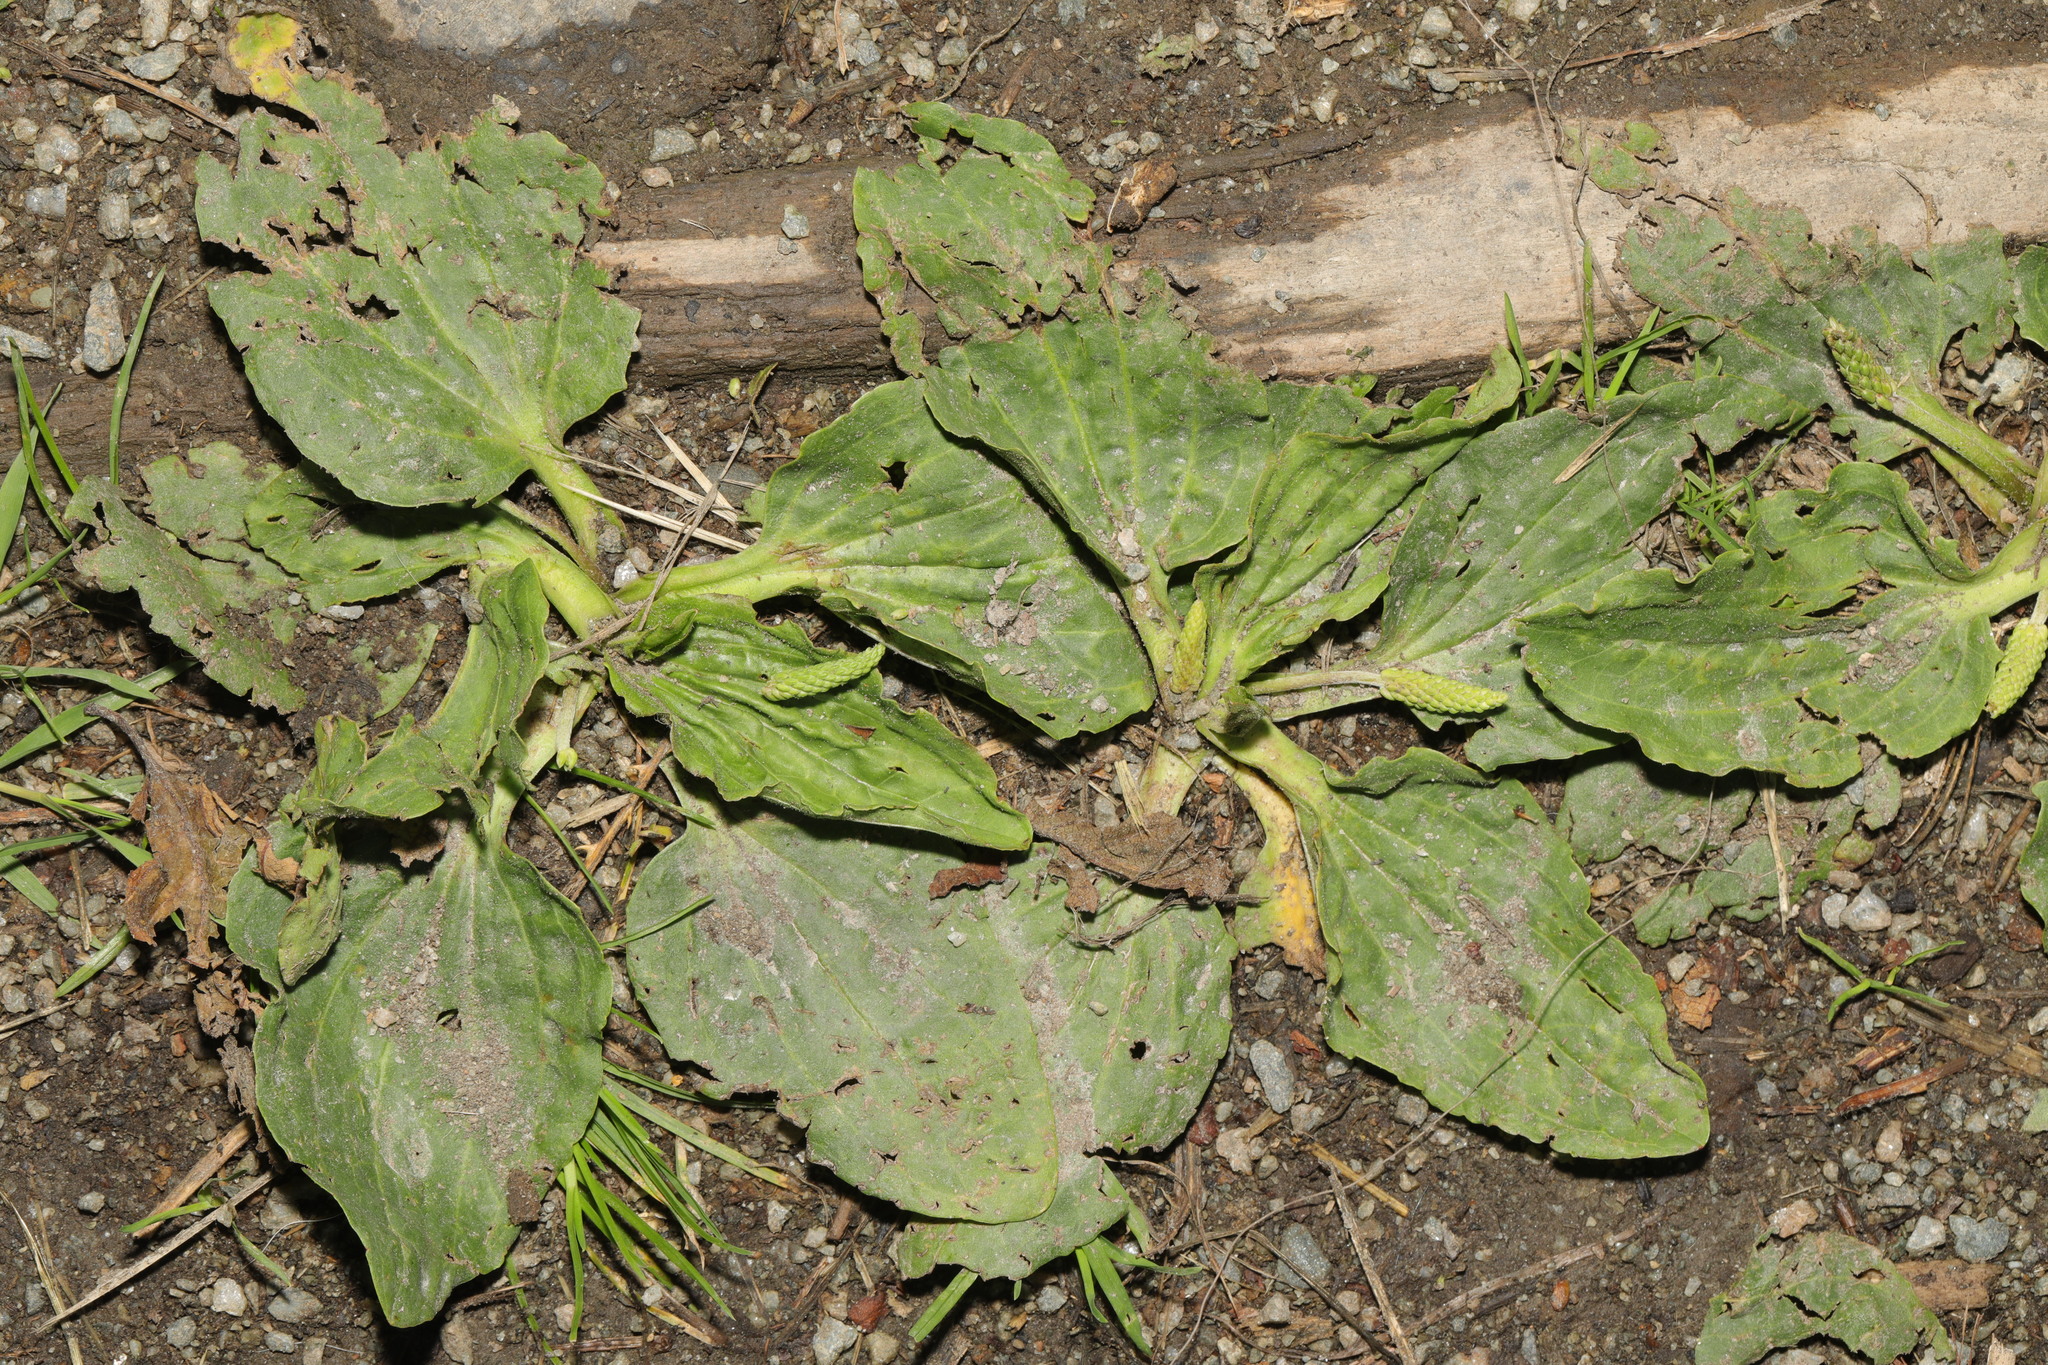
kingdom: Plantae
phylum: Tracheophyta
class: Magnoliopsida
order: Lamiales
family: Plantaginaceae
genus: Plantago
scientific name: Plantago major
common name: Common plantain
